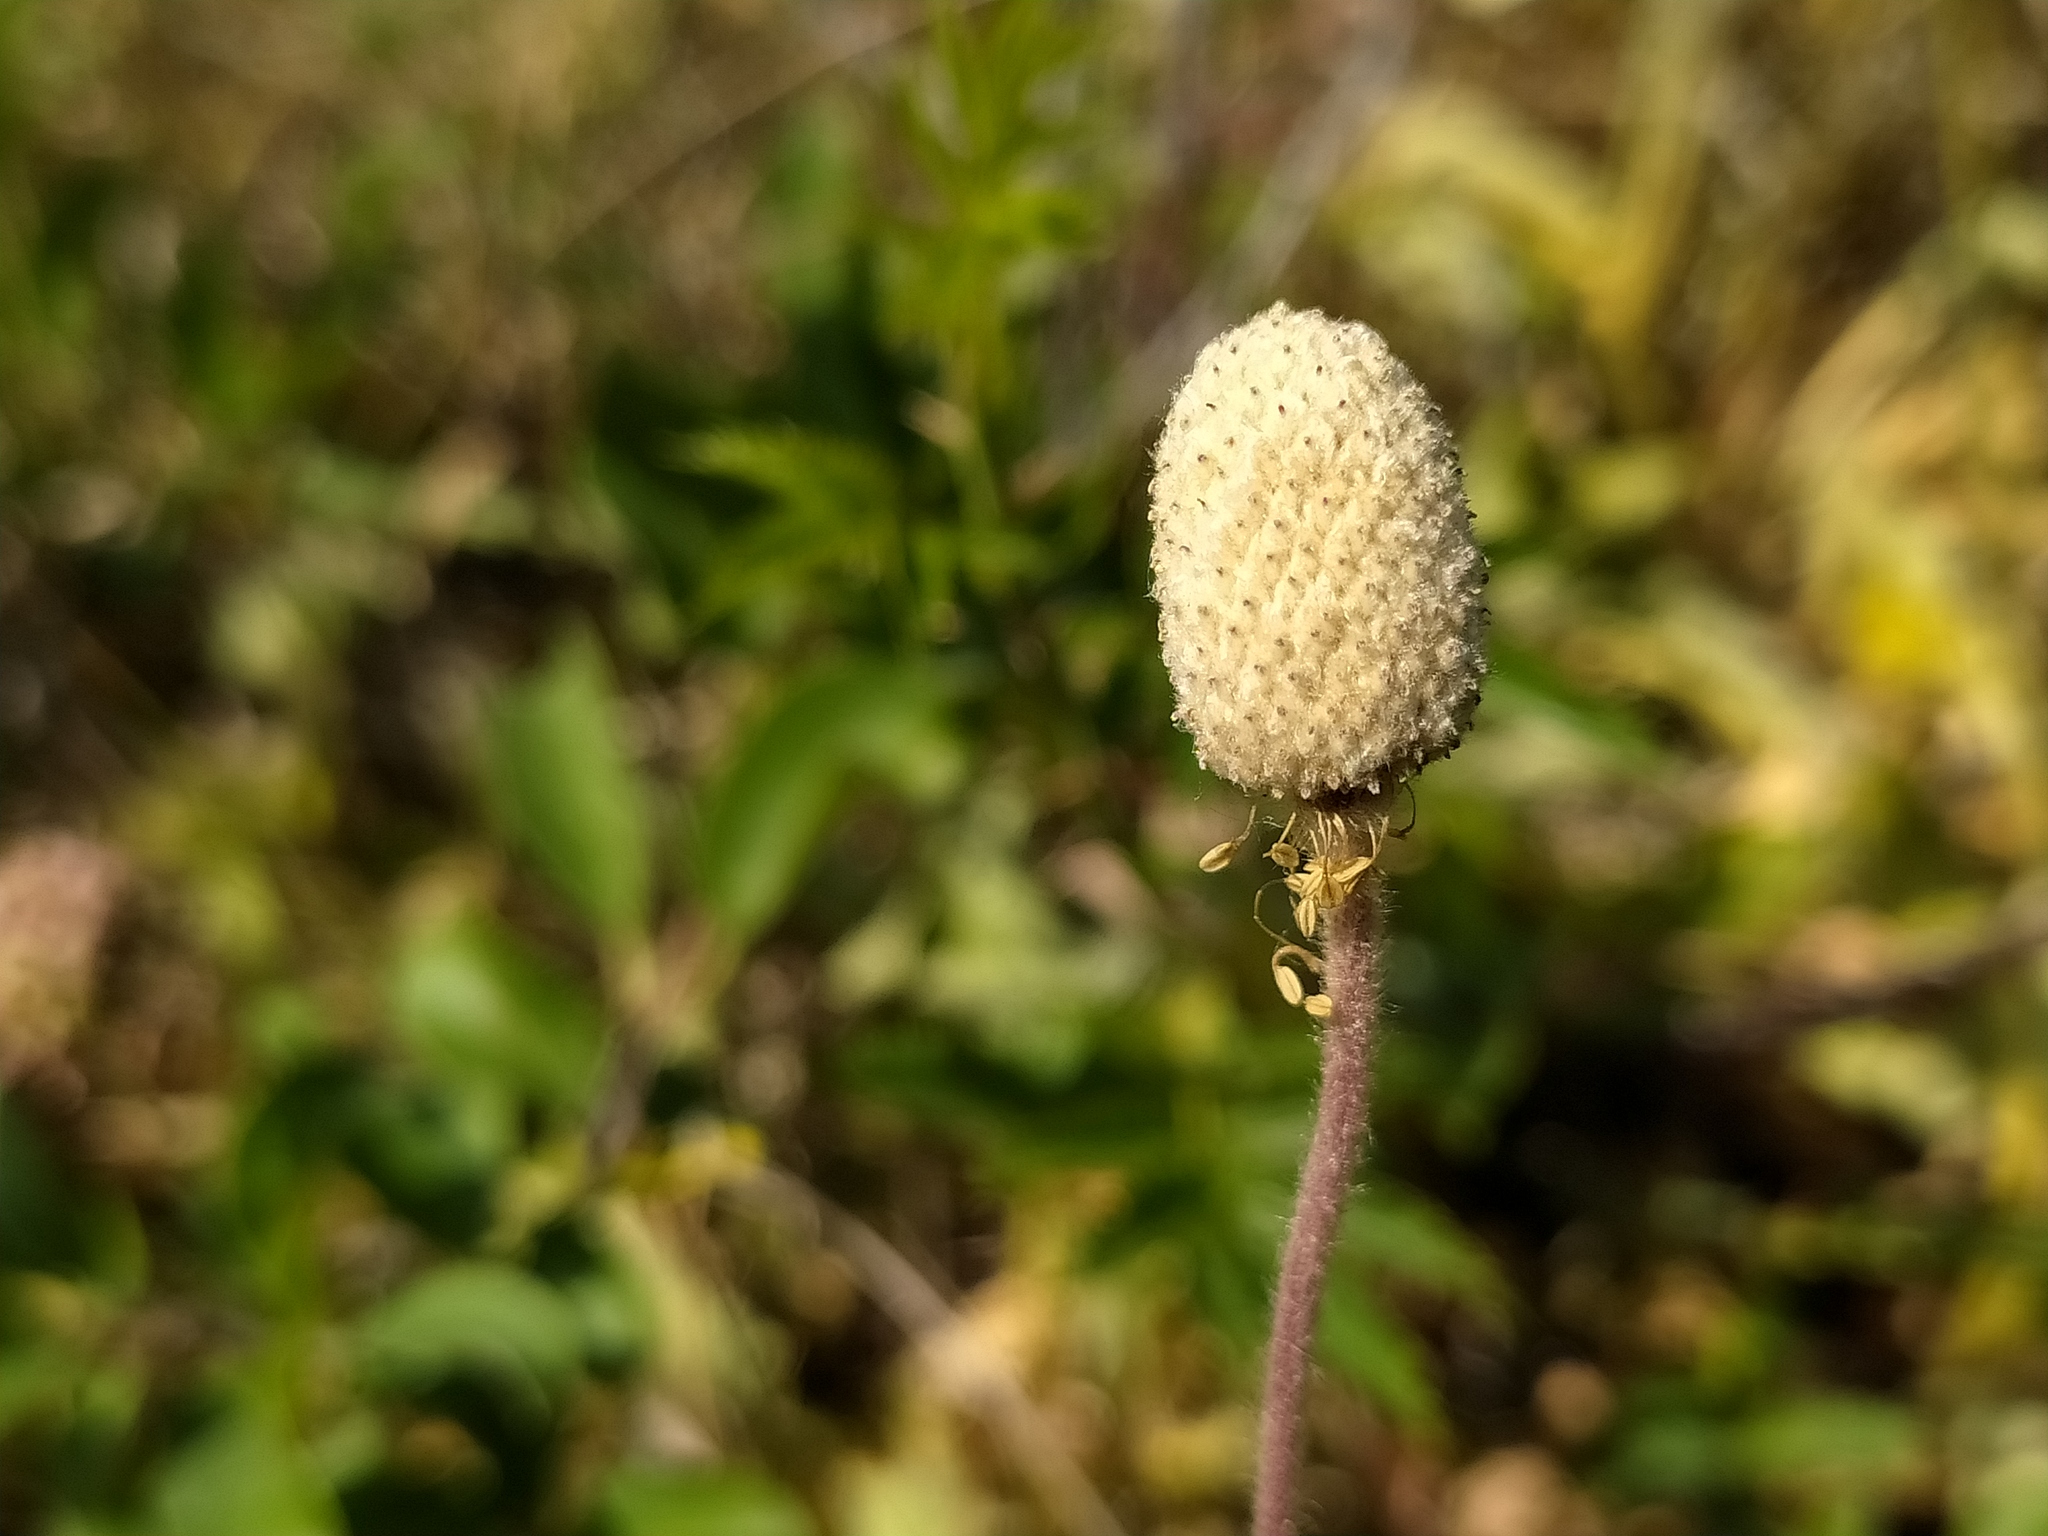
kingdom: Plantae
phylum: Tracheophyta
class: Magnoliopsida
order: Ranunculales
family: Ranunculaceae
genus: Anemone
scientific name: Anemone sylvestris
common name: Snowdrop anemone
